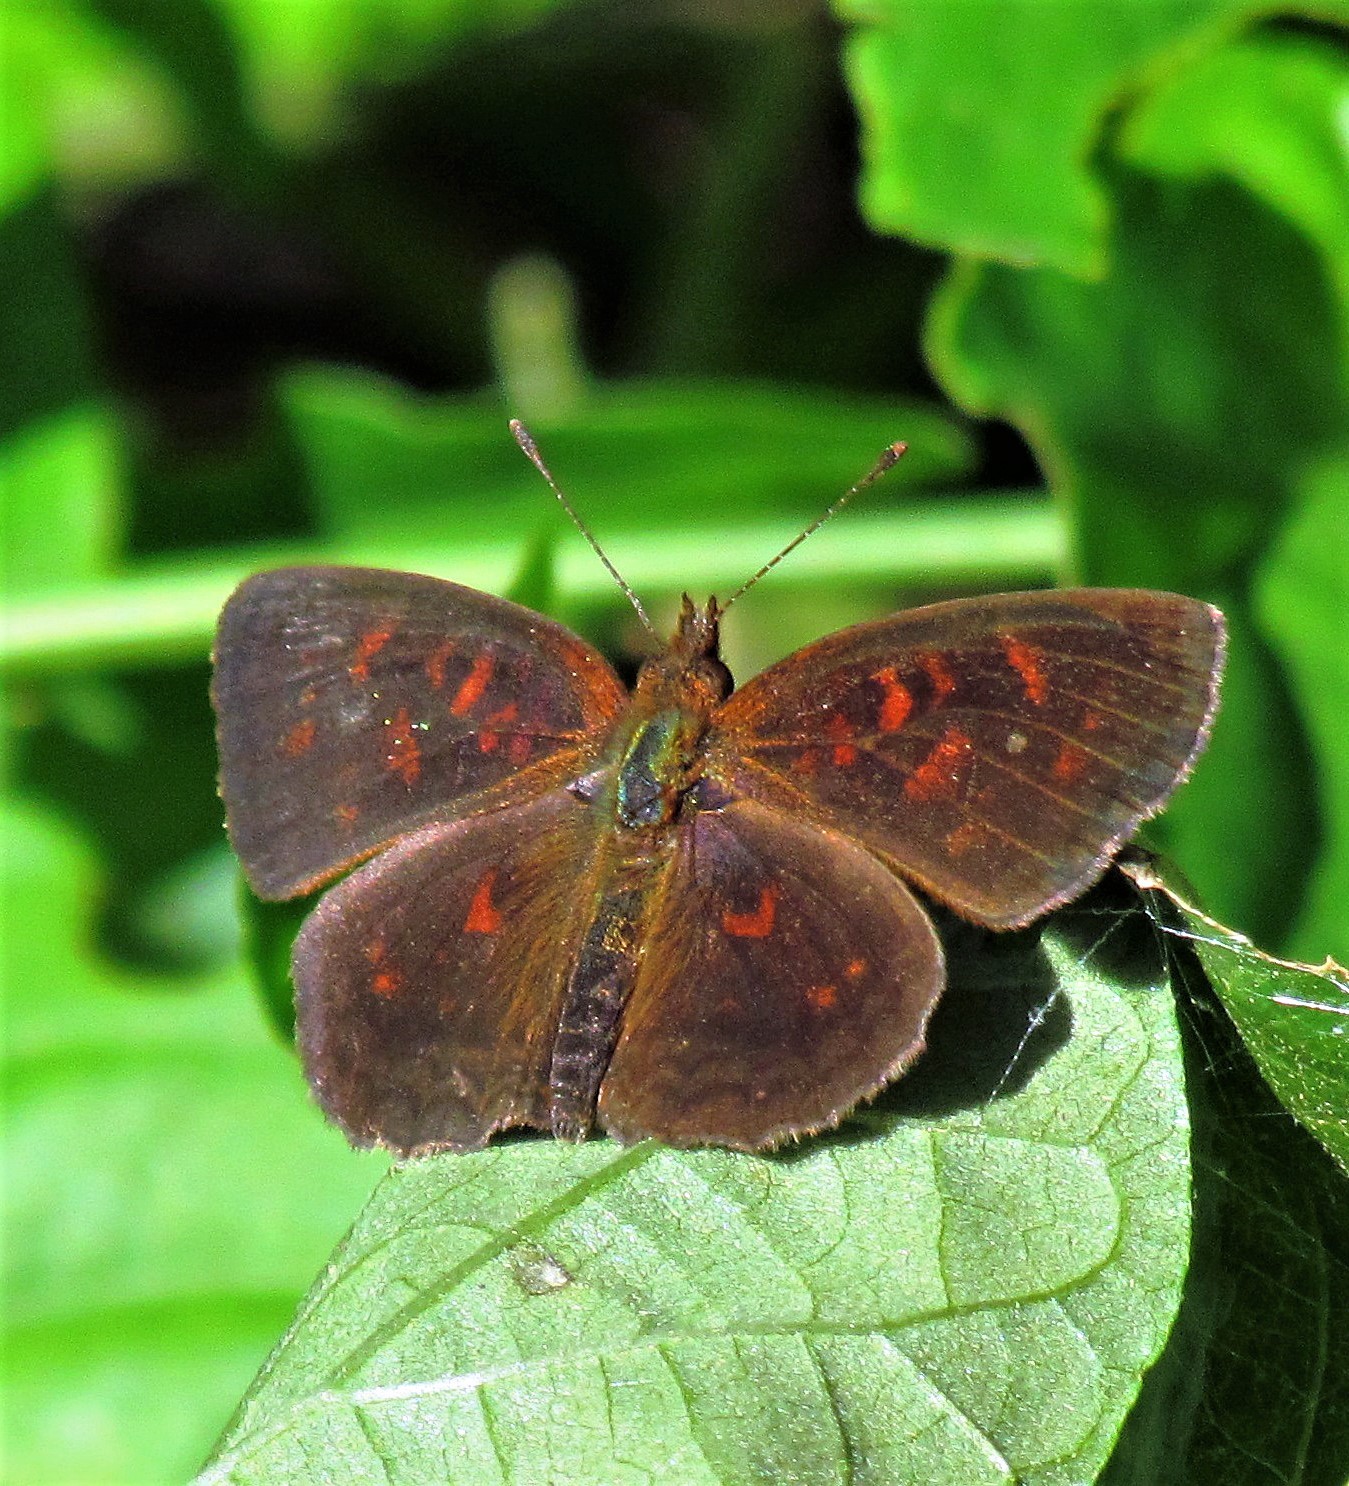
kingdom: Animalia
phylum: Arthropoda
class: Insecta
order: Lepidoptera
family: Nymphalidae
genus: Ortilia
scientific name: Ortilia velica
